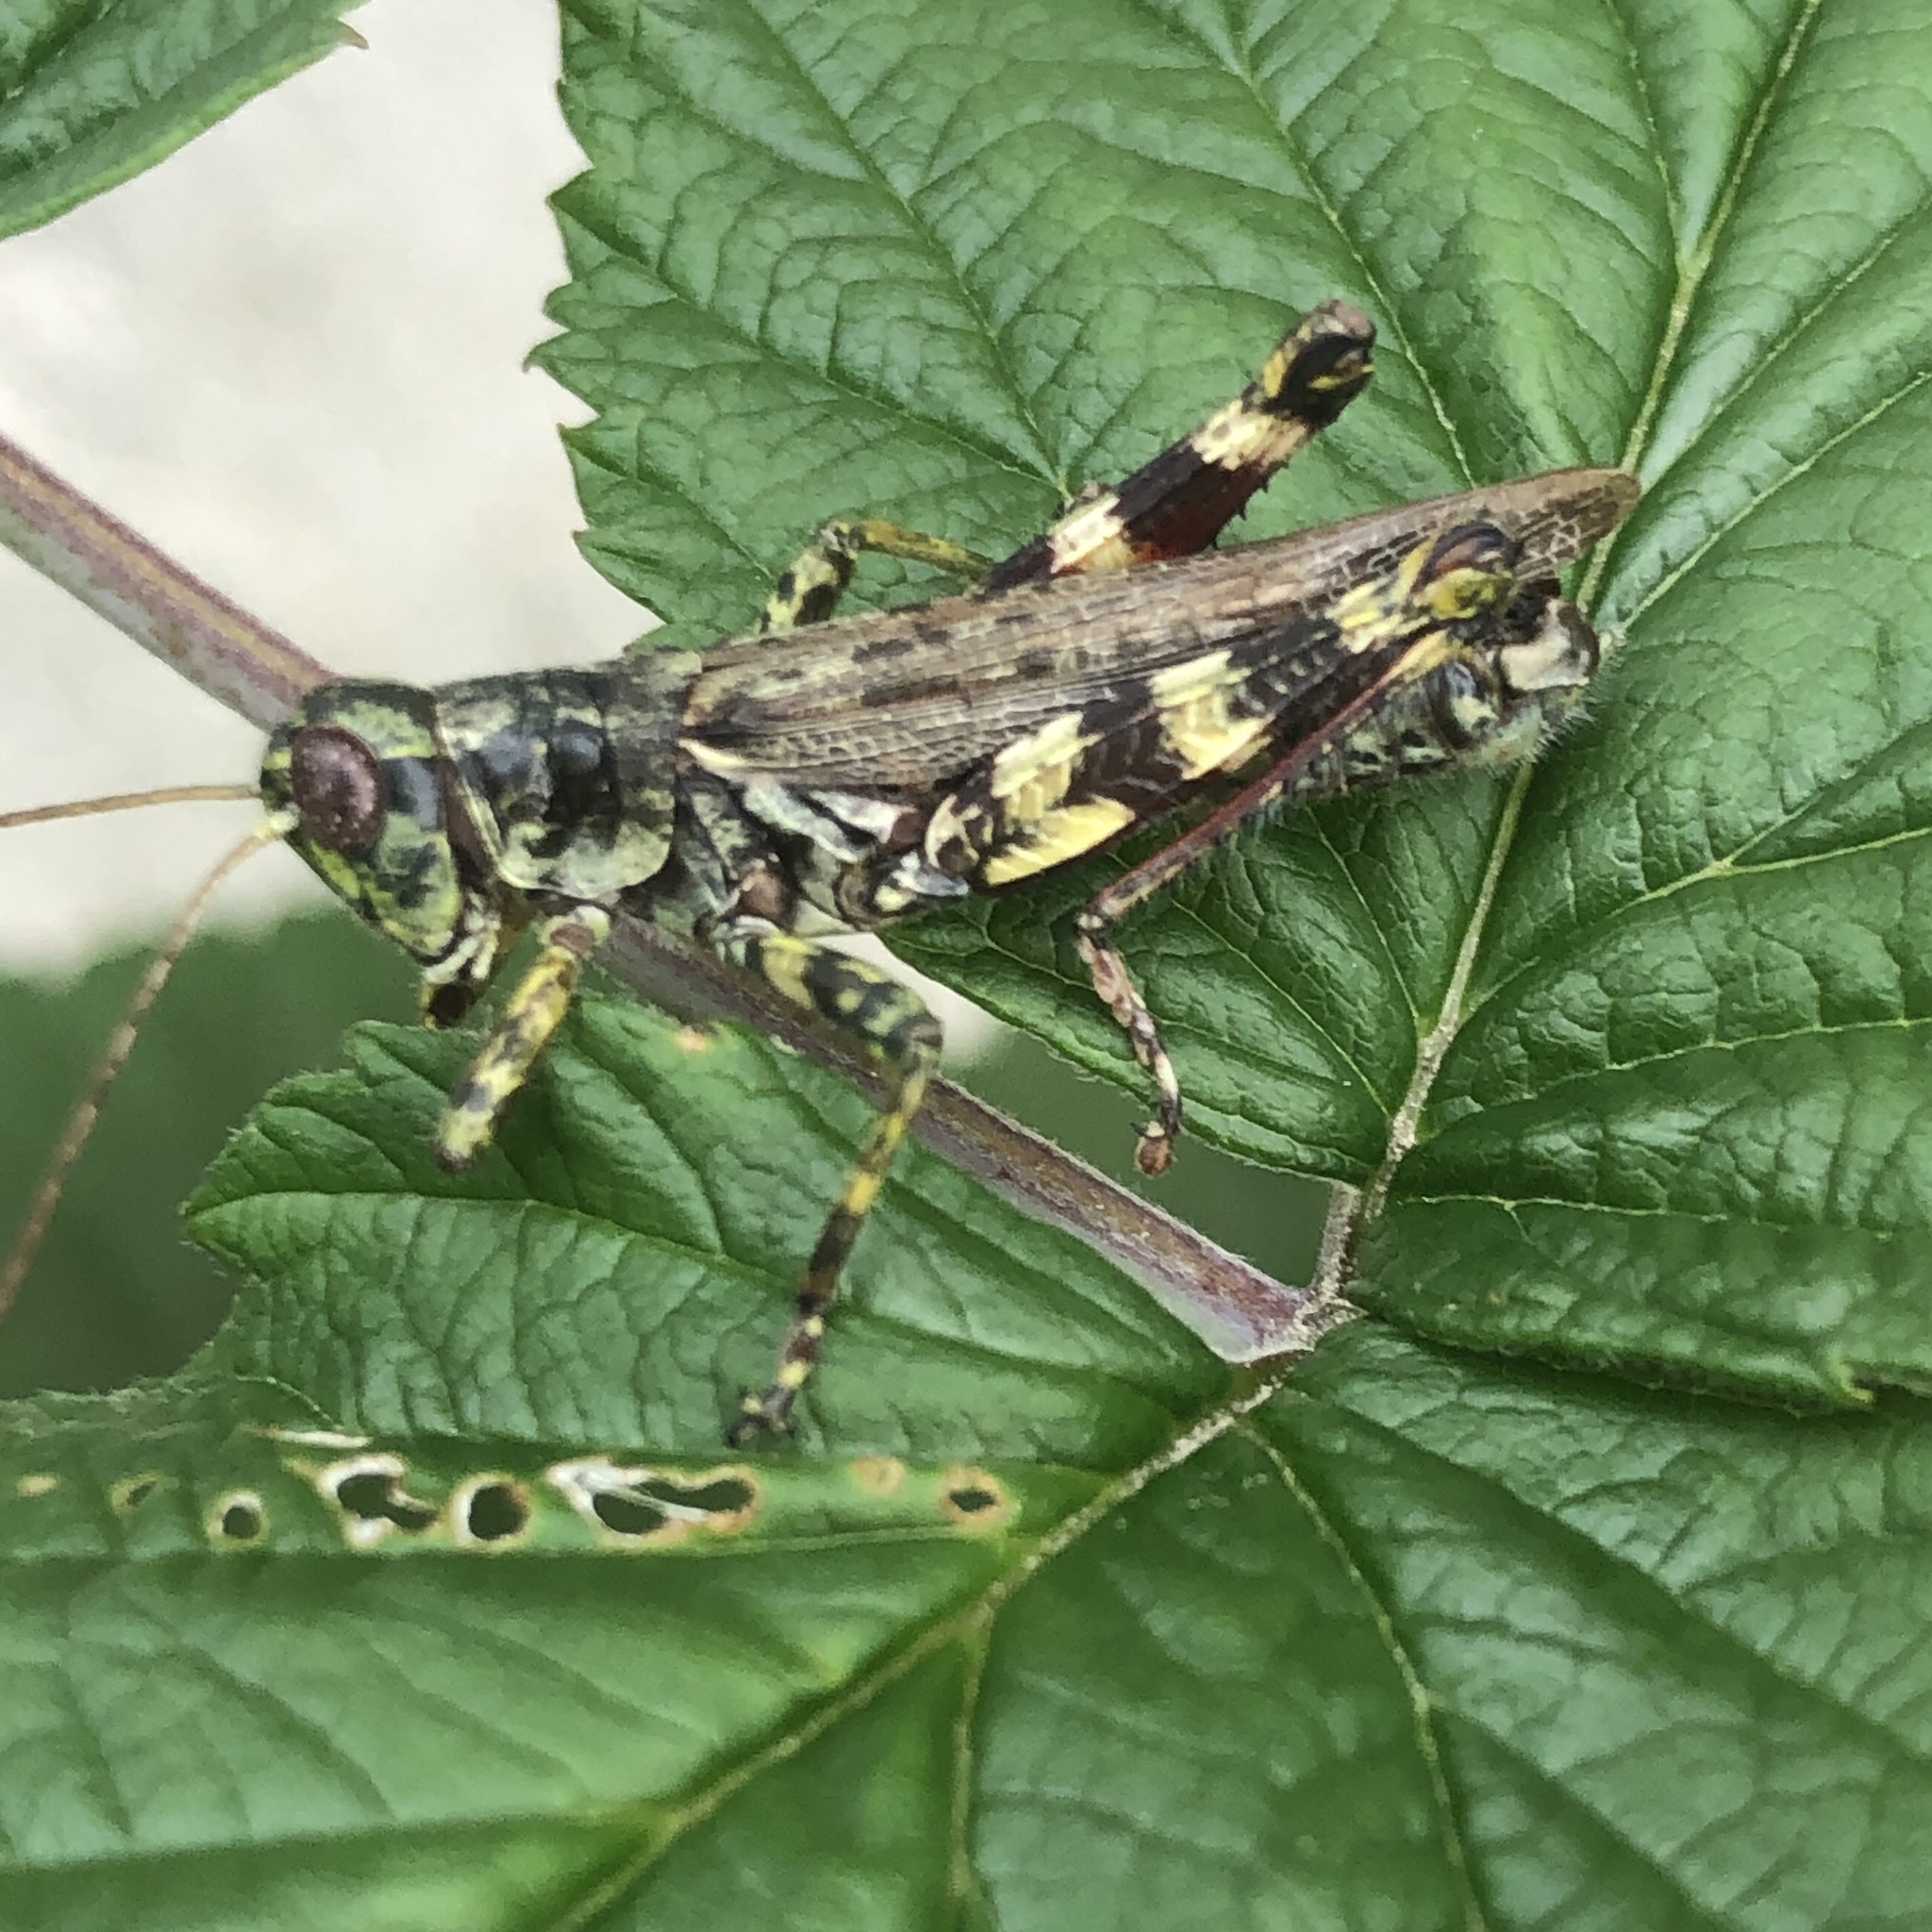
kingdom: Animalia
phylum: Arthropoda
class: Insecta
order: Orthoptera
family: Acrididae
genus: Melanoplus
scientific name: Melanoplus punctulatus
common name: Pine-tree spur-throat grasshopper
